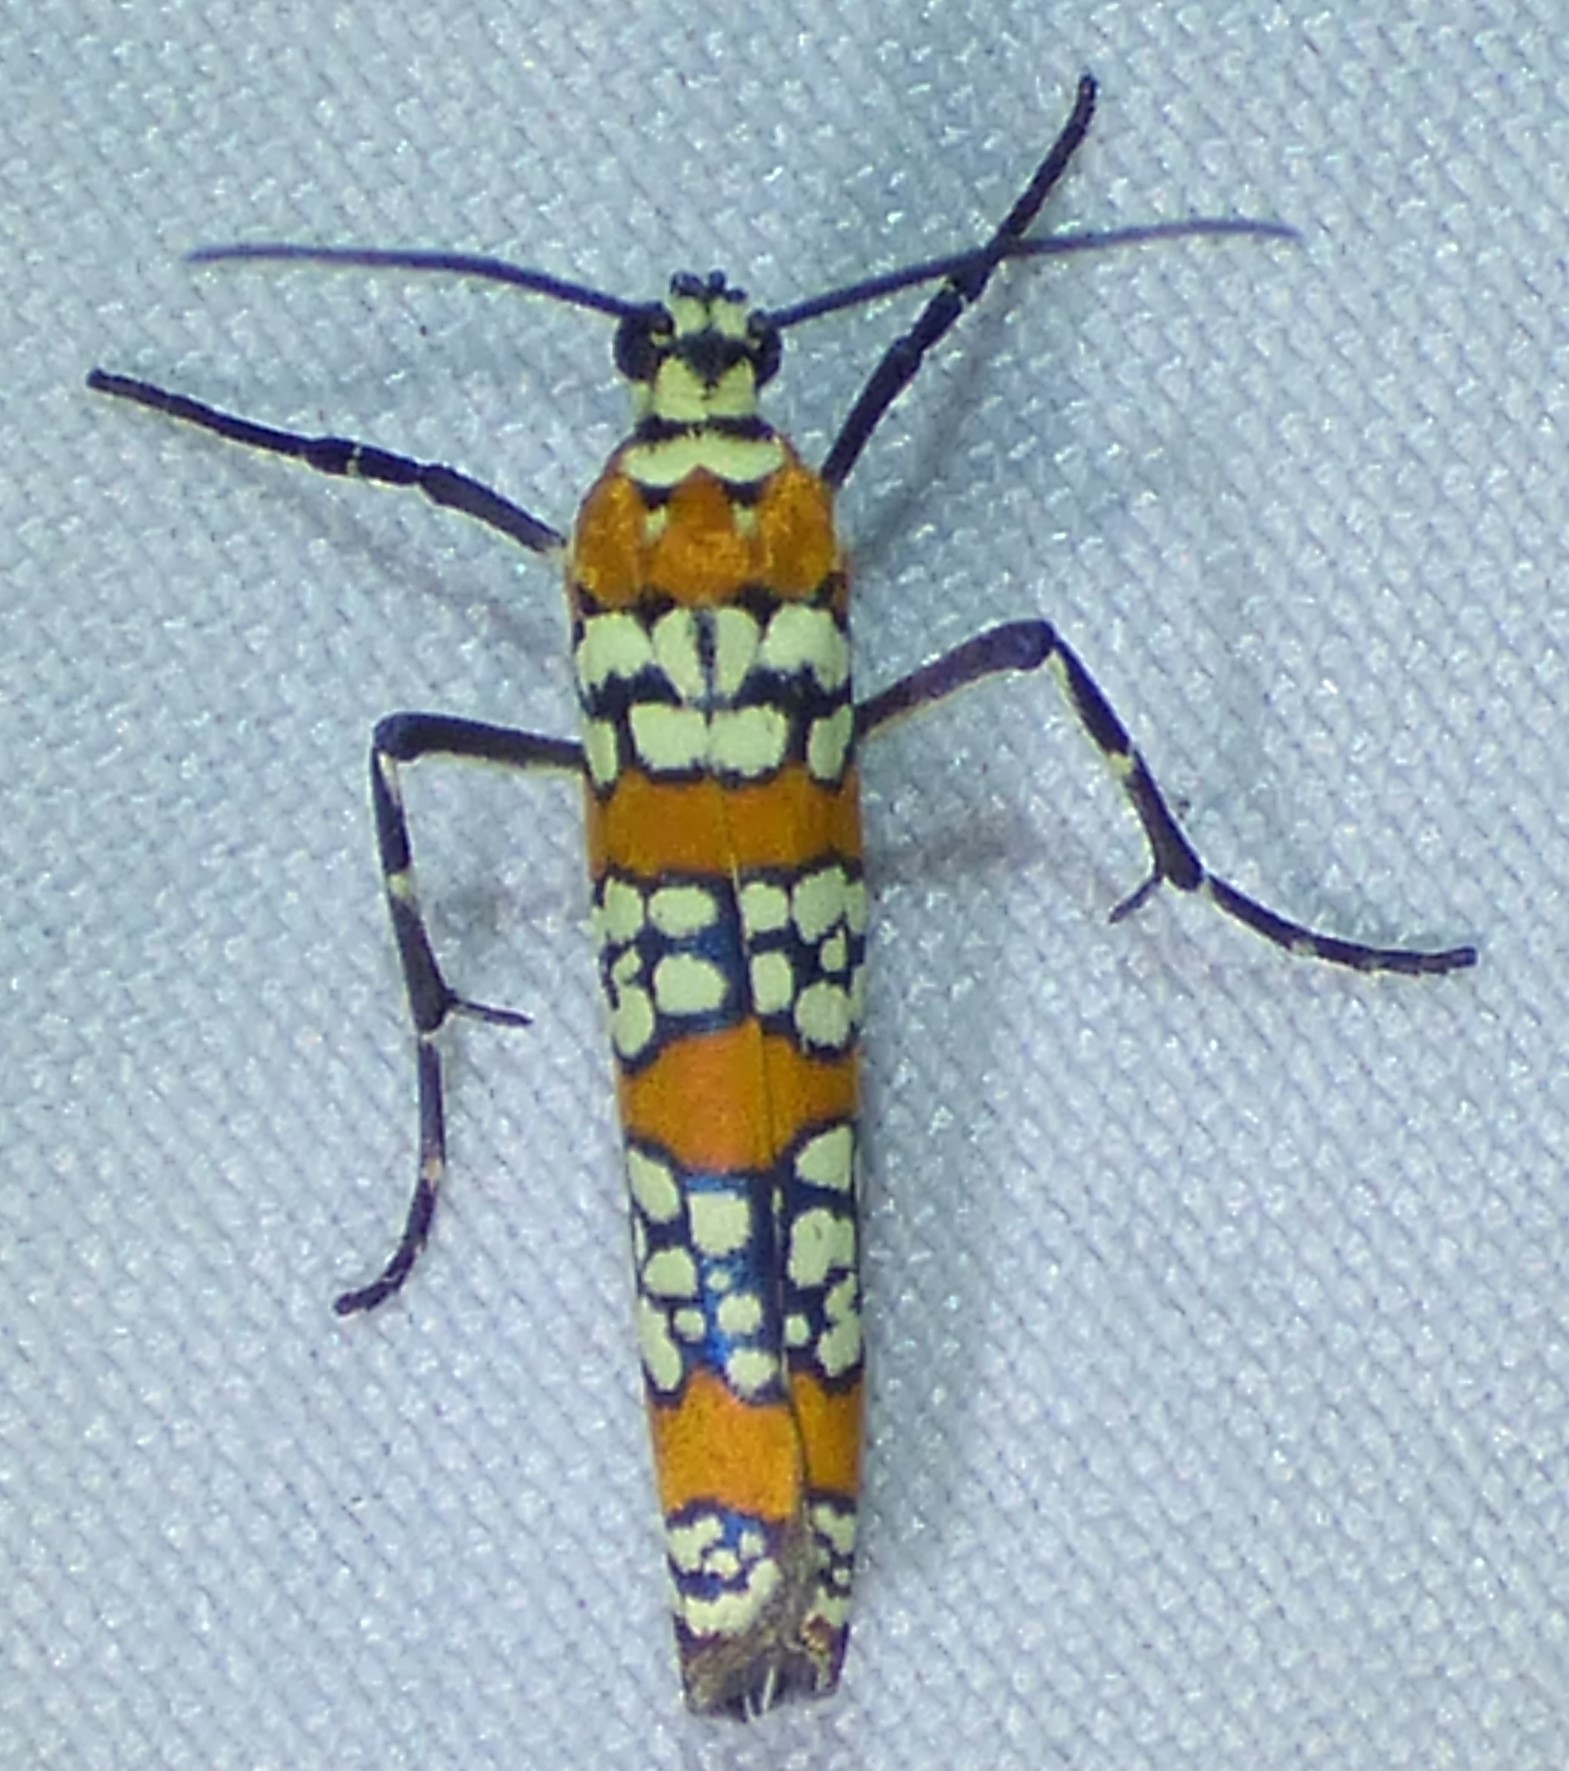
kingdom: Animalia
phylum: Arthropoda
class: Insecta
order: Lepidoptera
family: Attevidae
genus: Atteva
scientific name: Atteva punctella
